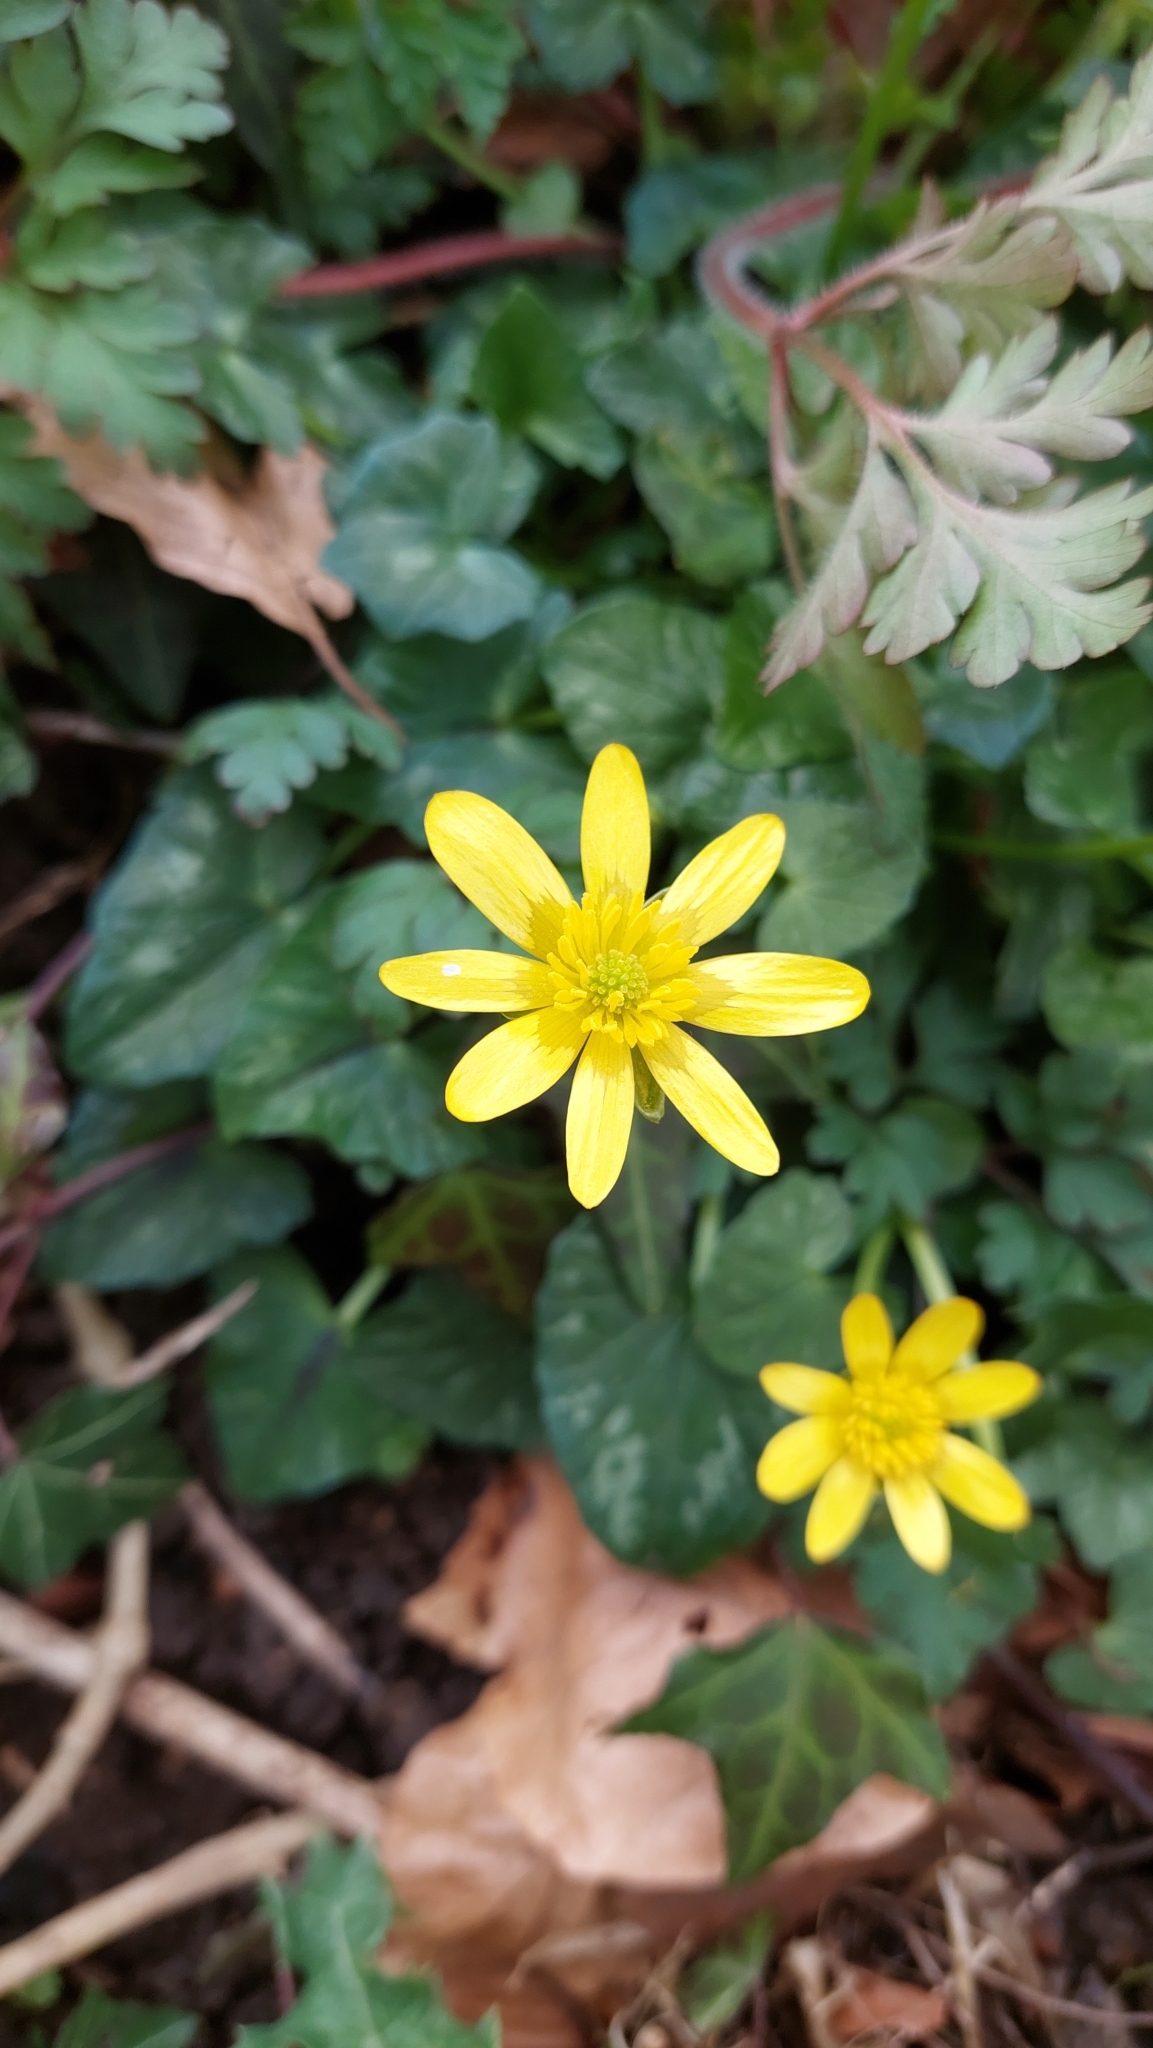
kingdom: Plantae
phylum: Tracheophyta
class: Magnoliopsida
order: Ranunculales
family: Ranunculaceae
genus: Ficaria
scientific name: Ficaria verna
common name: Lesser celandine
